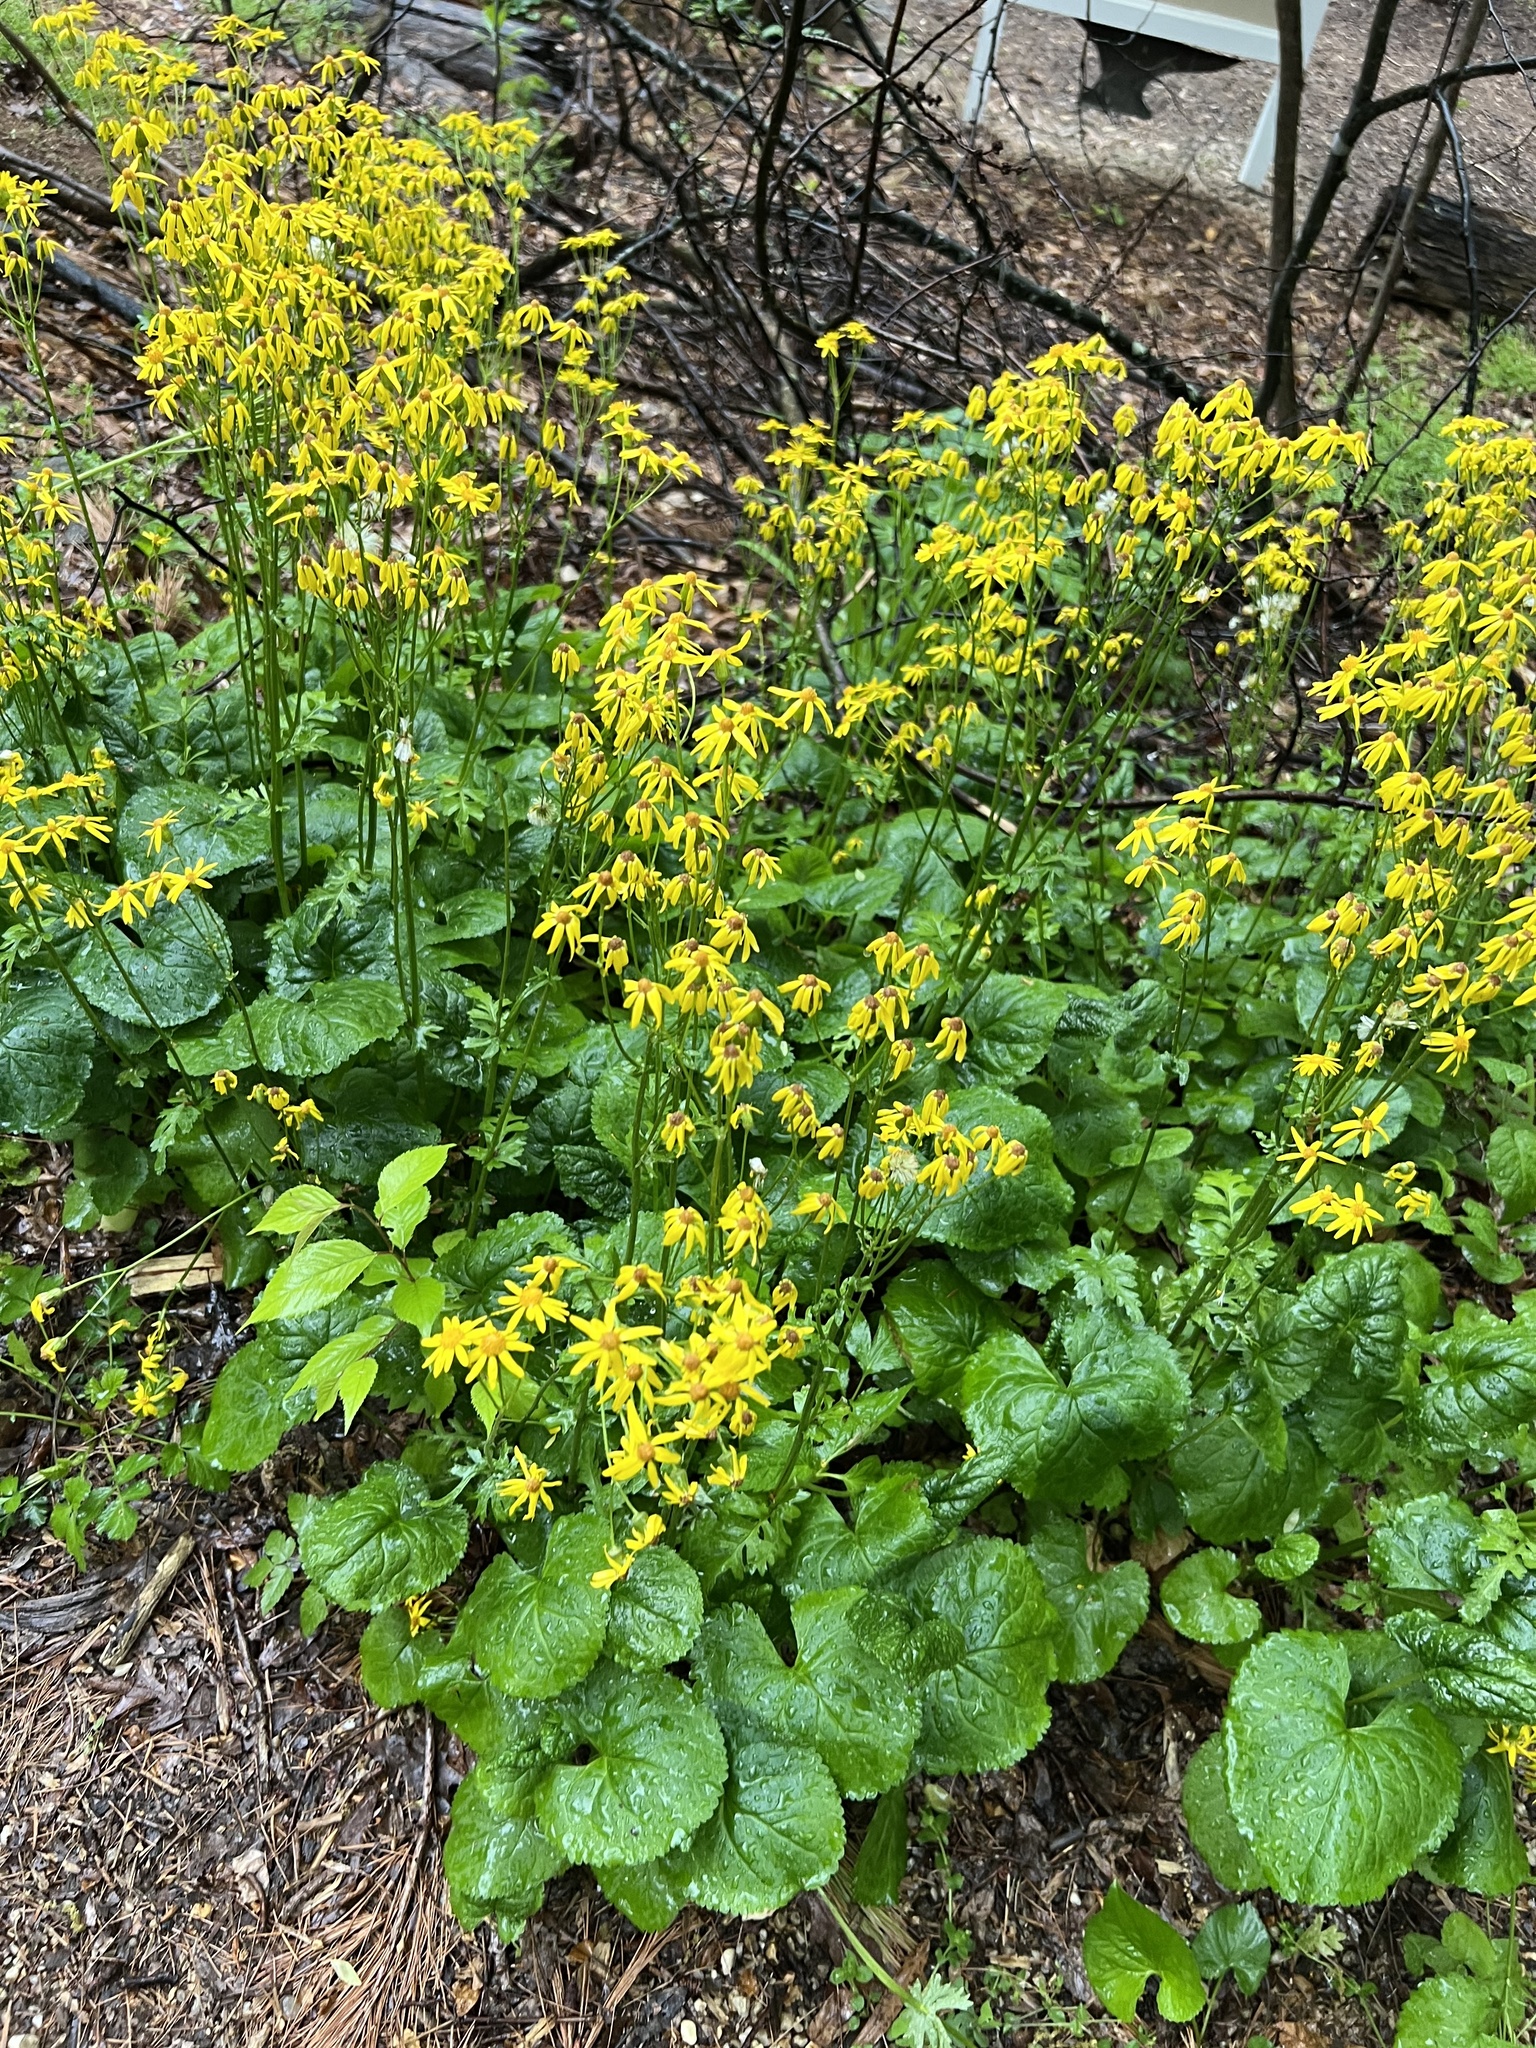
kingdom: Plantae
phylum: Tracheophyta
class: Magnoliopsida
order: Asterales
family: Asteraceae
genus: Packera
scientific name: Packera aurea
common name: Golden groundsel
